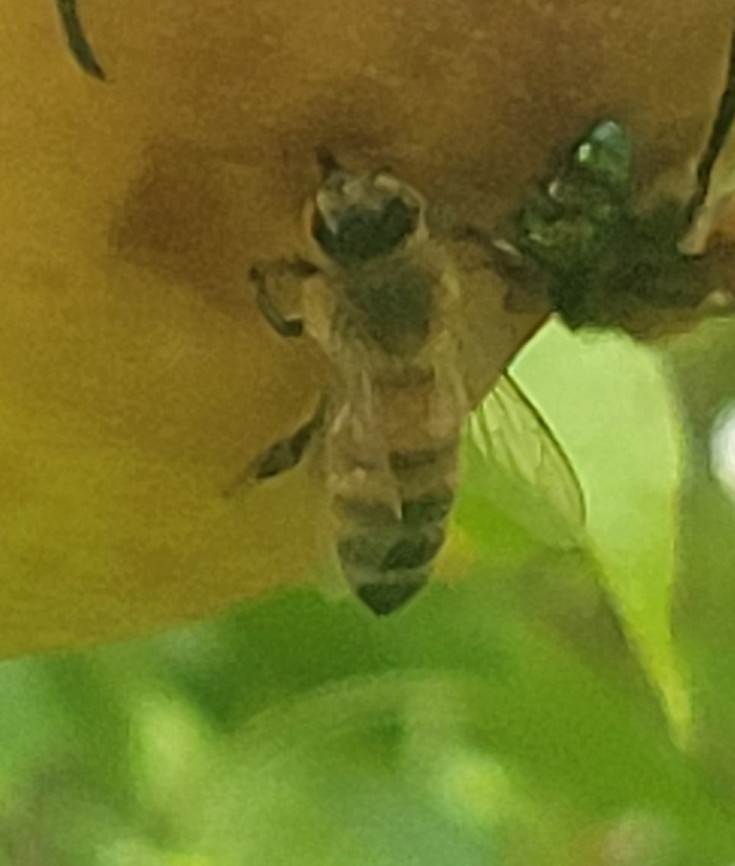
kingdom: Animalia
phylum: Arthropoda
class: Insecta
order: Hymenoptera
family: Apidae
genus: Apis
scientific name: Apis mellifera
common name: Honey bee
